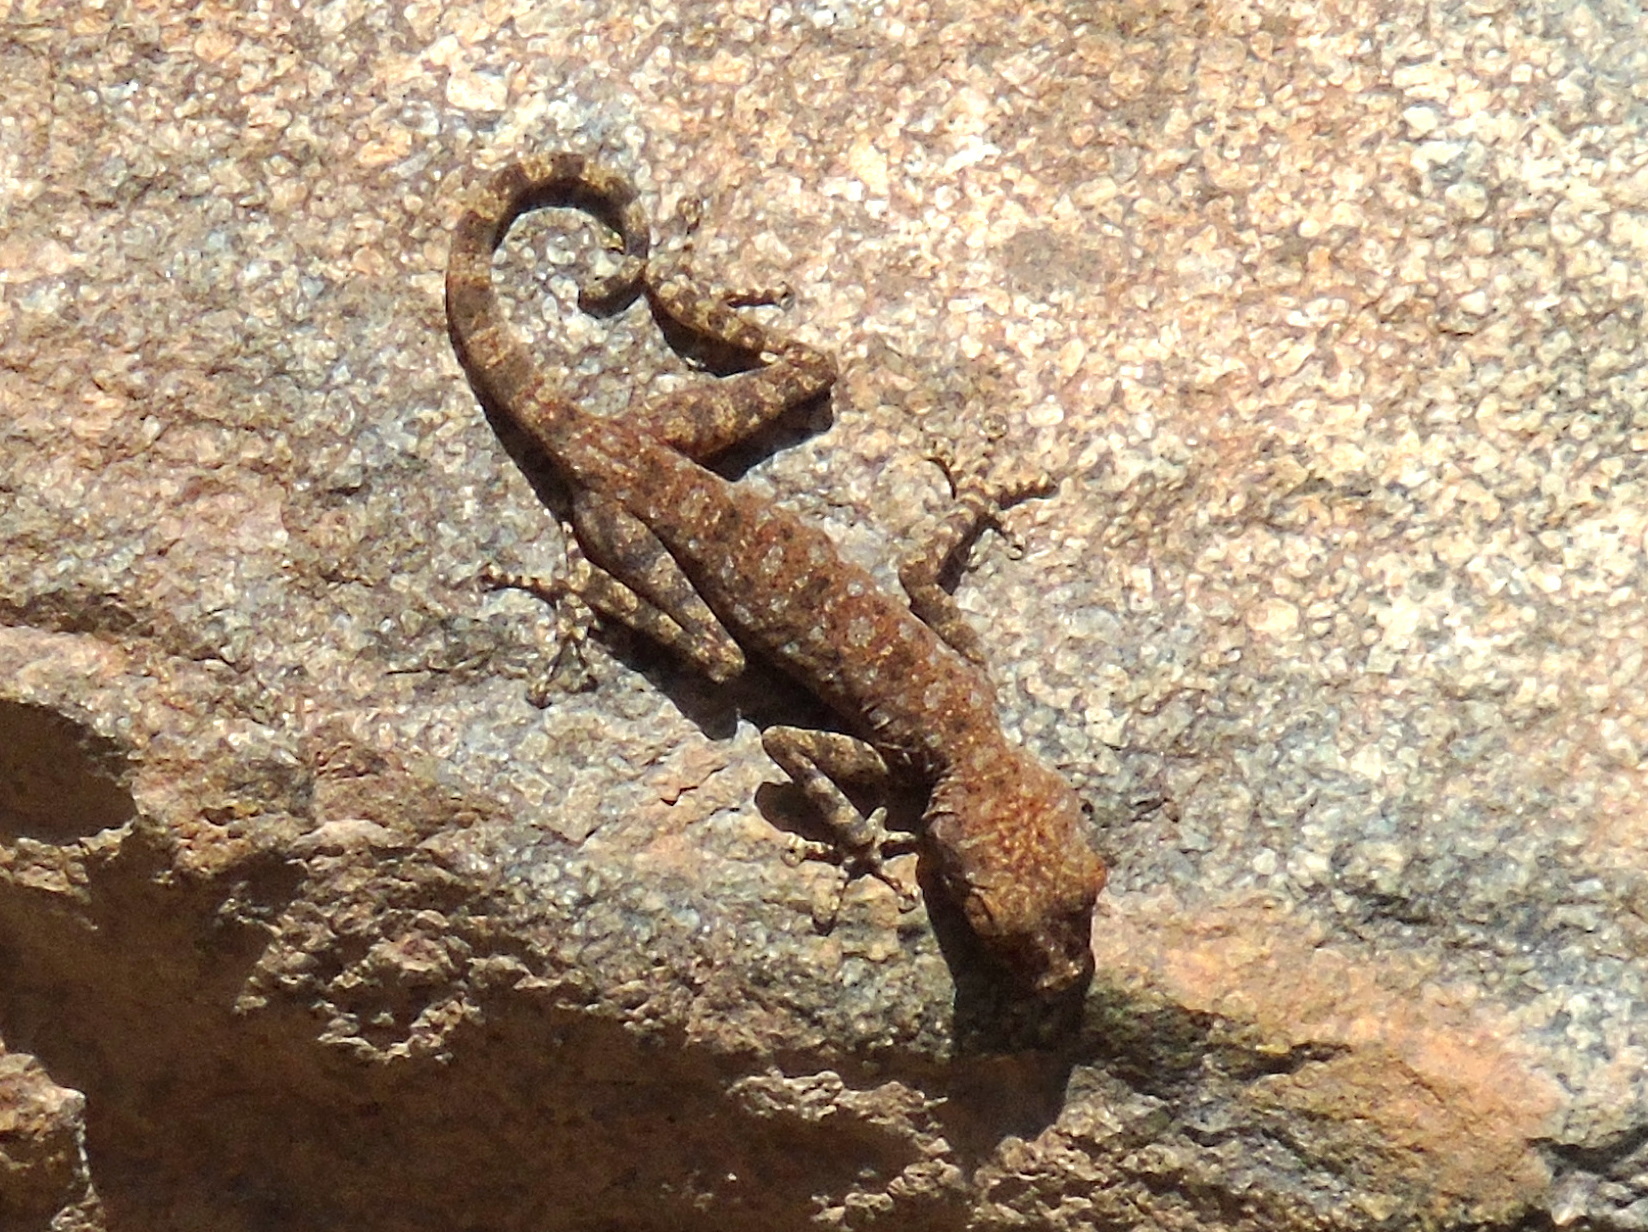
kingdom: Animalia
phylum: Chordata
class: Squamata
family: Phyllodactylidae
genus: Ptyodactylus
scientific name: Ptyodactylus guttatus
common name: Sinai fan-fingered gecko
